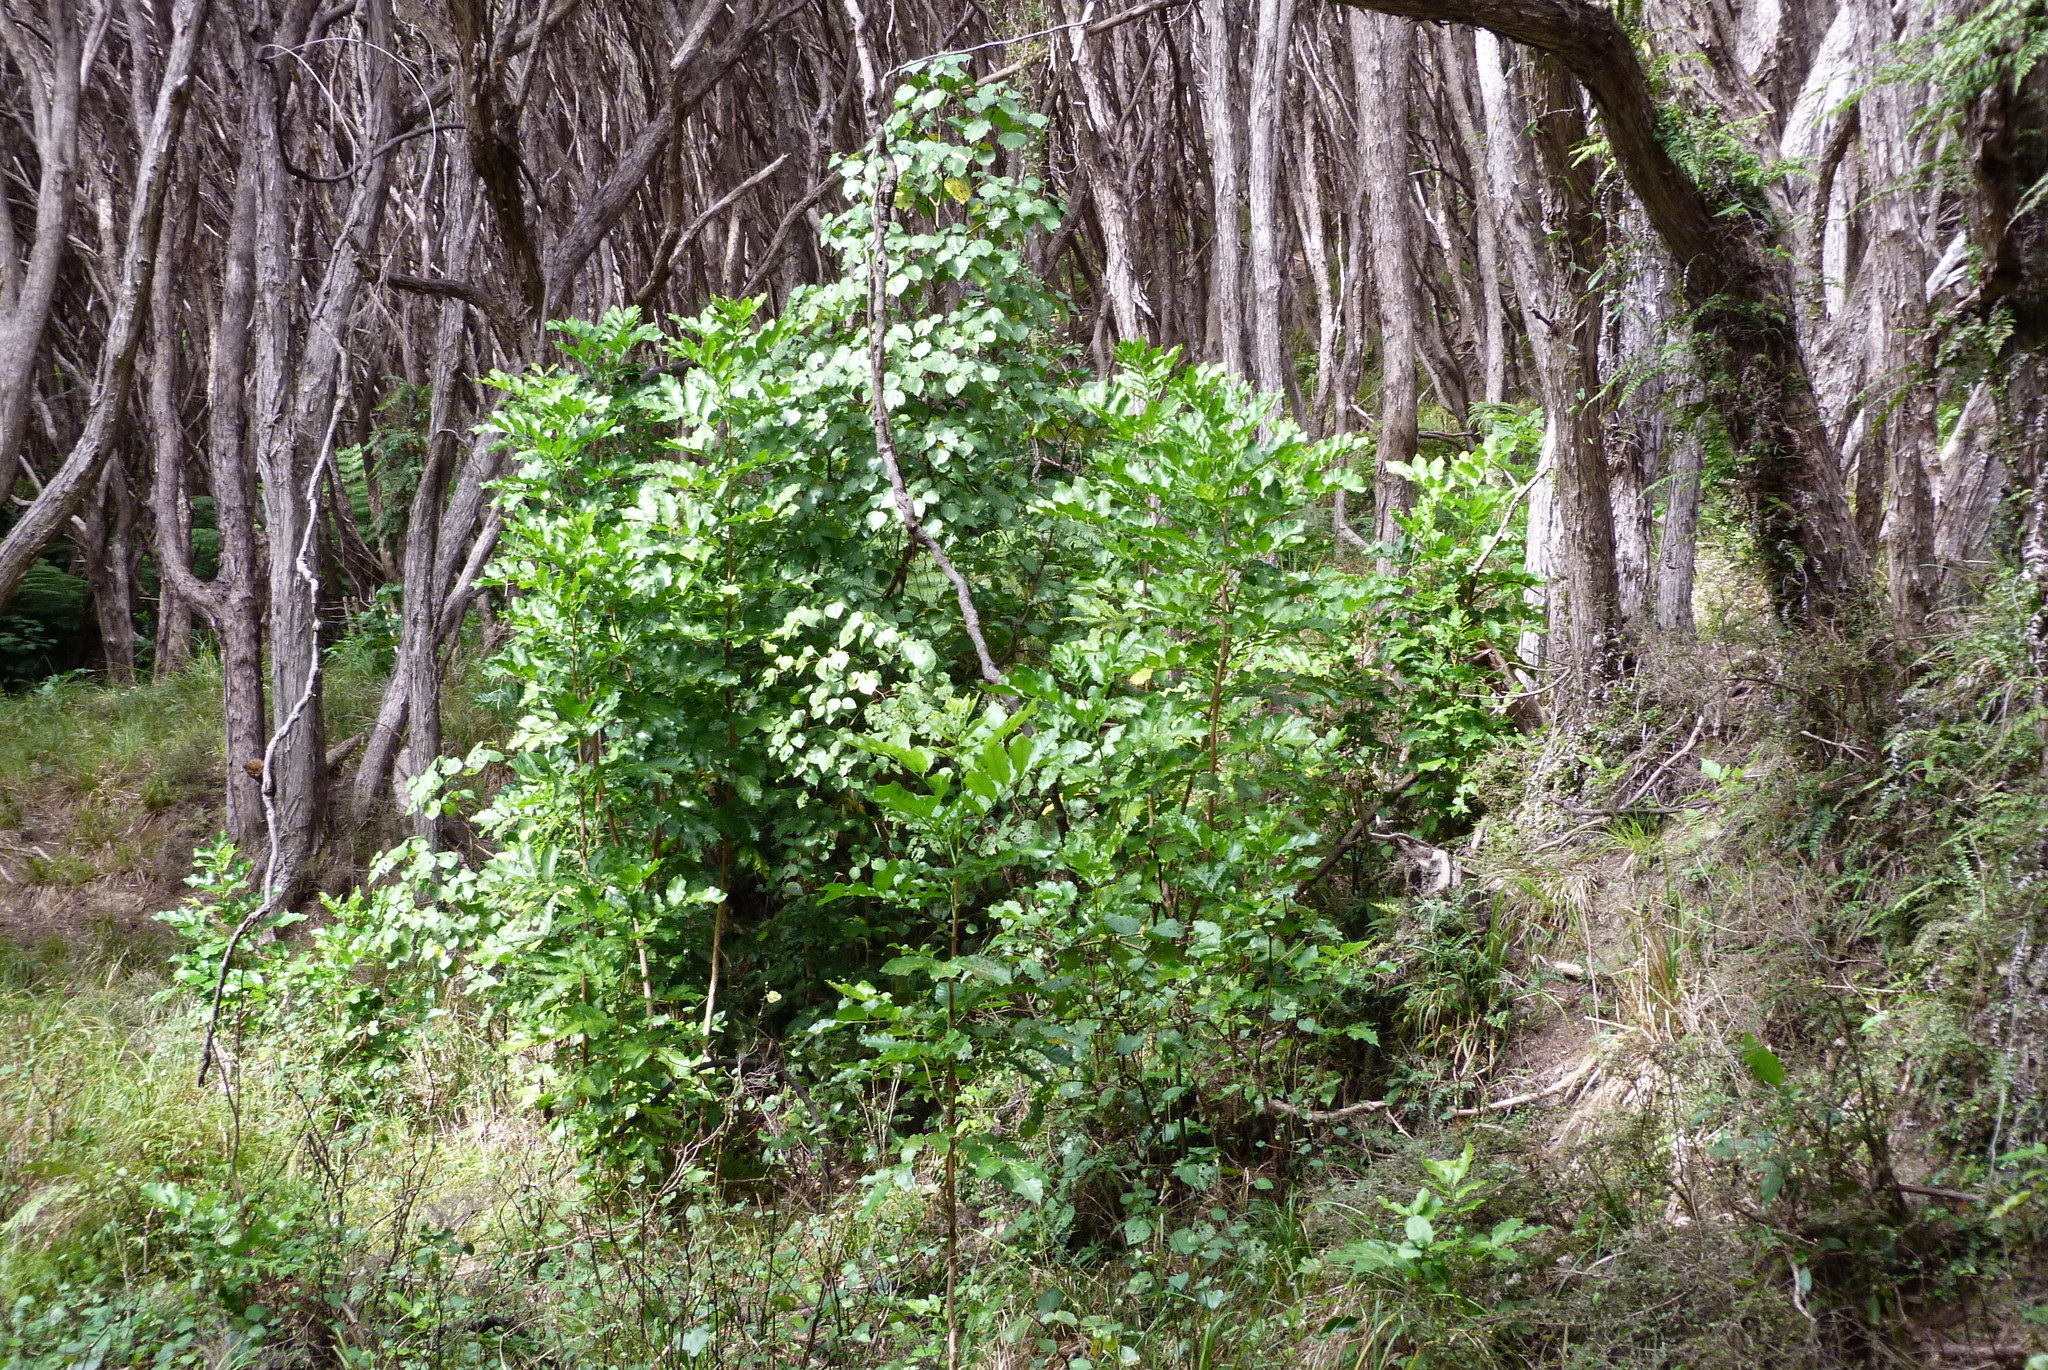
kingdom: Plantae
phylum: Tracheophyta
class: Magnoliopsida
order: Sapindales
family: Meliaceae
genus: Didymocheton
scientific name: Didymocheton spectabilis
